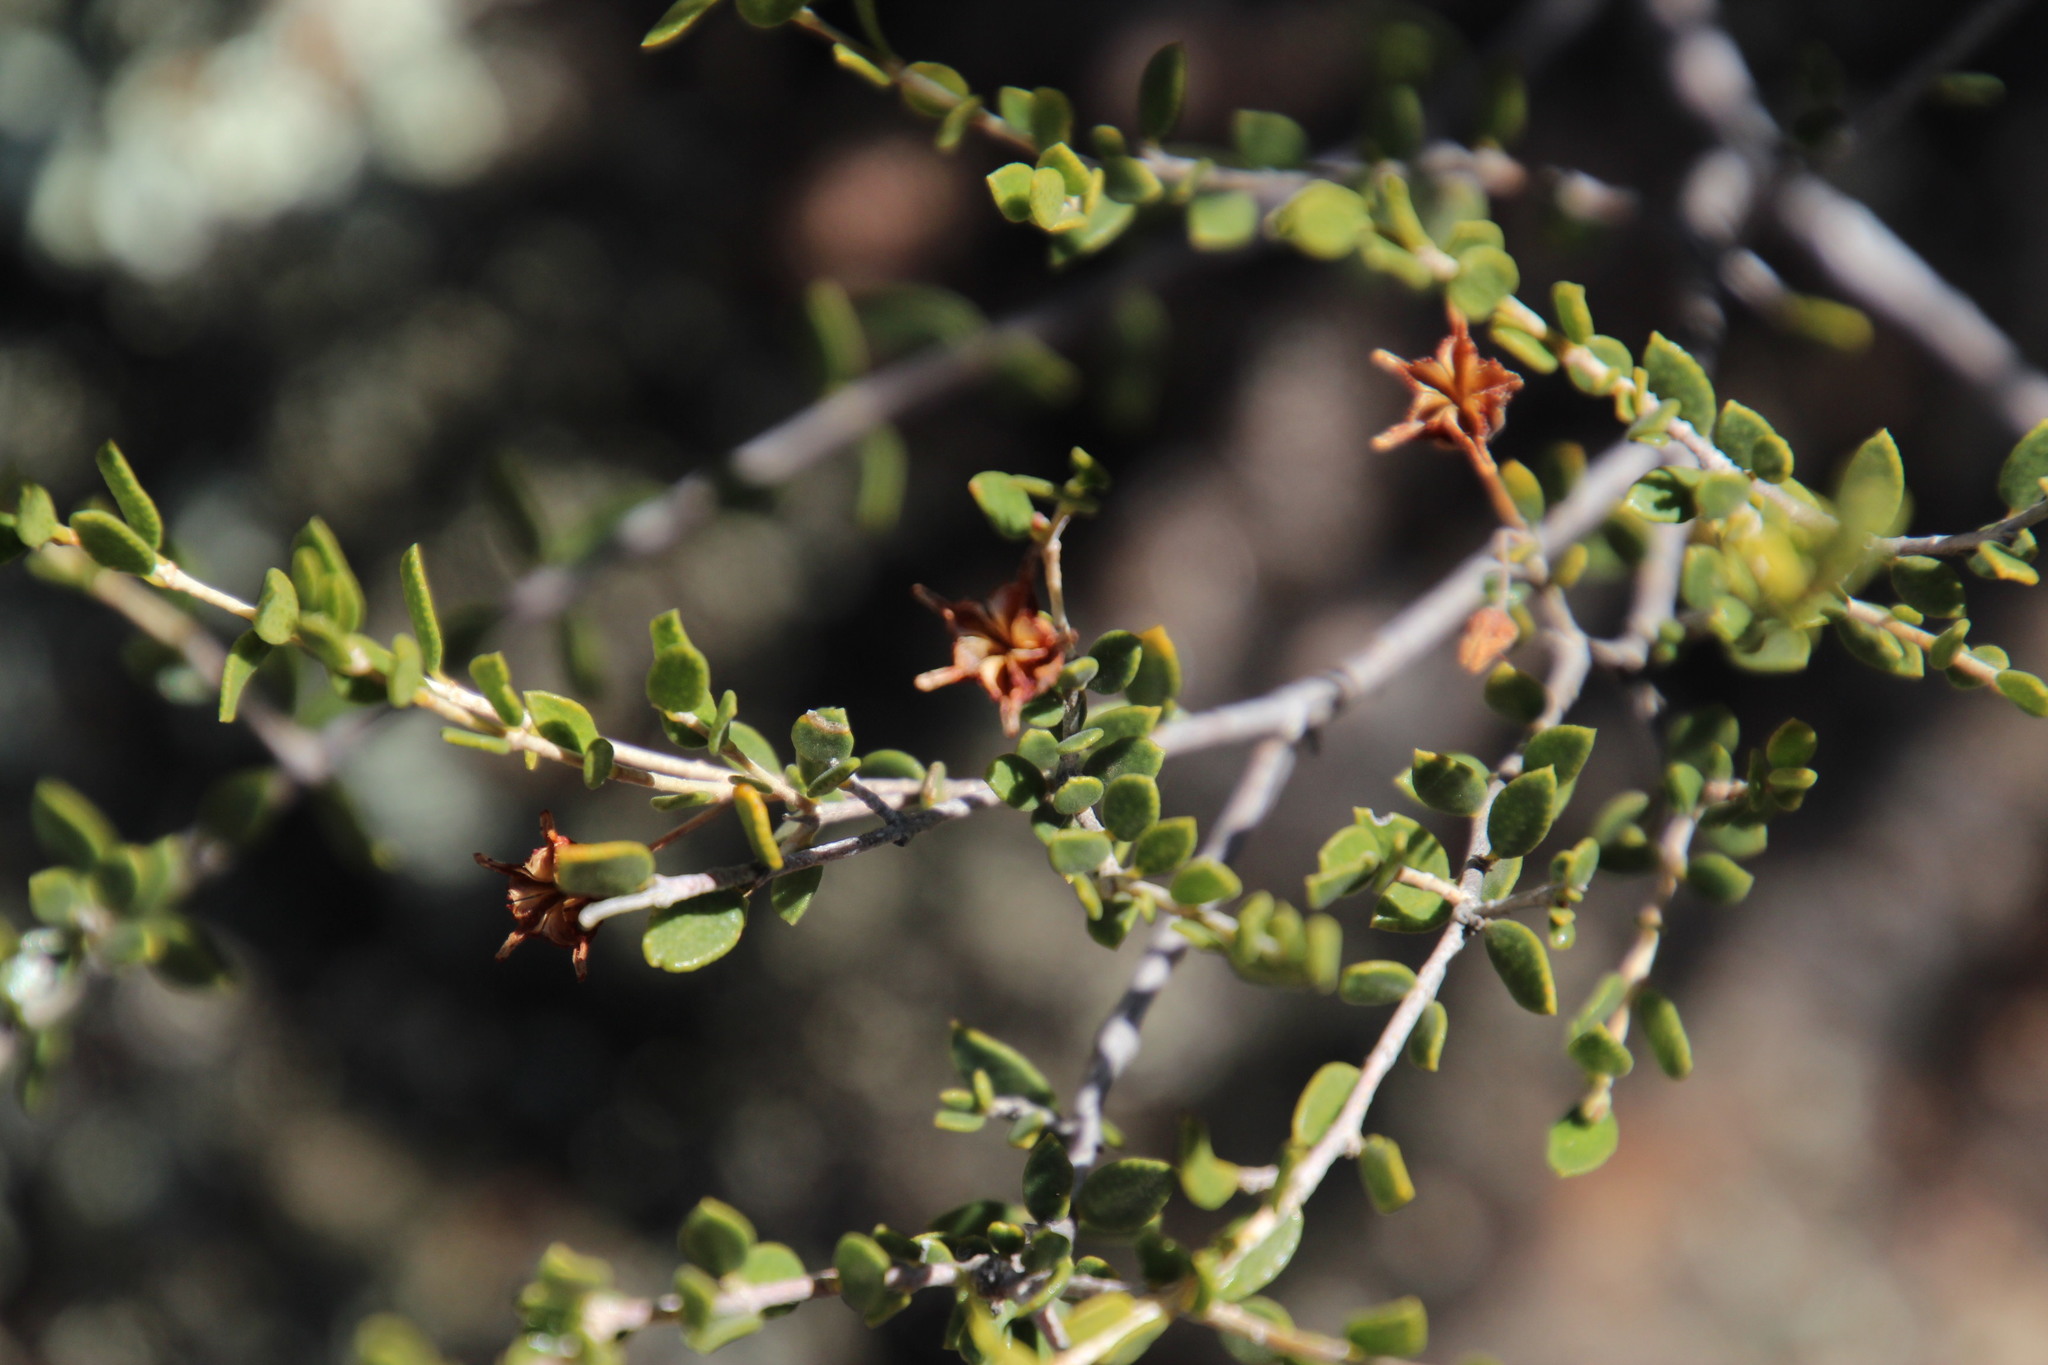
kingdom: Plantae
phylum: Tracheophyta
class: Magnoliopsida
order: Sapindales
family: Rutaceae
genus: Agathosma
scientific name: Agathosma namaquensis
